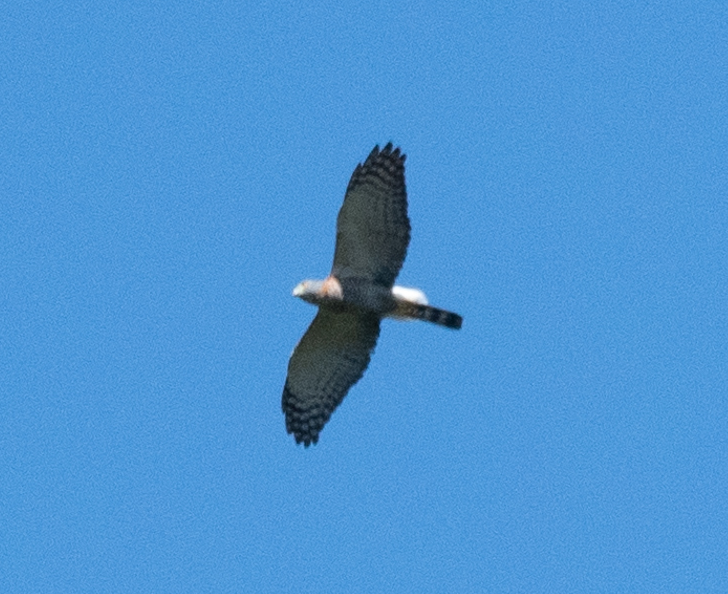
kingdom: Animalia
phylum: Chordata
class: Aves
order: Accipitriformes
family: Accipitridae
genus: Harpagus
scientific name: Harpagus bidentatus
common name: Double-toothed kite
